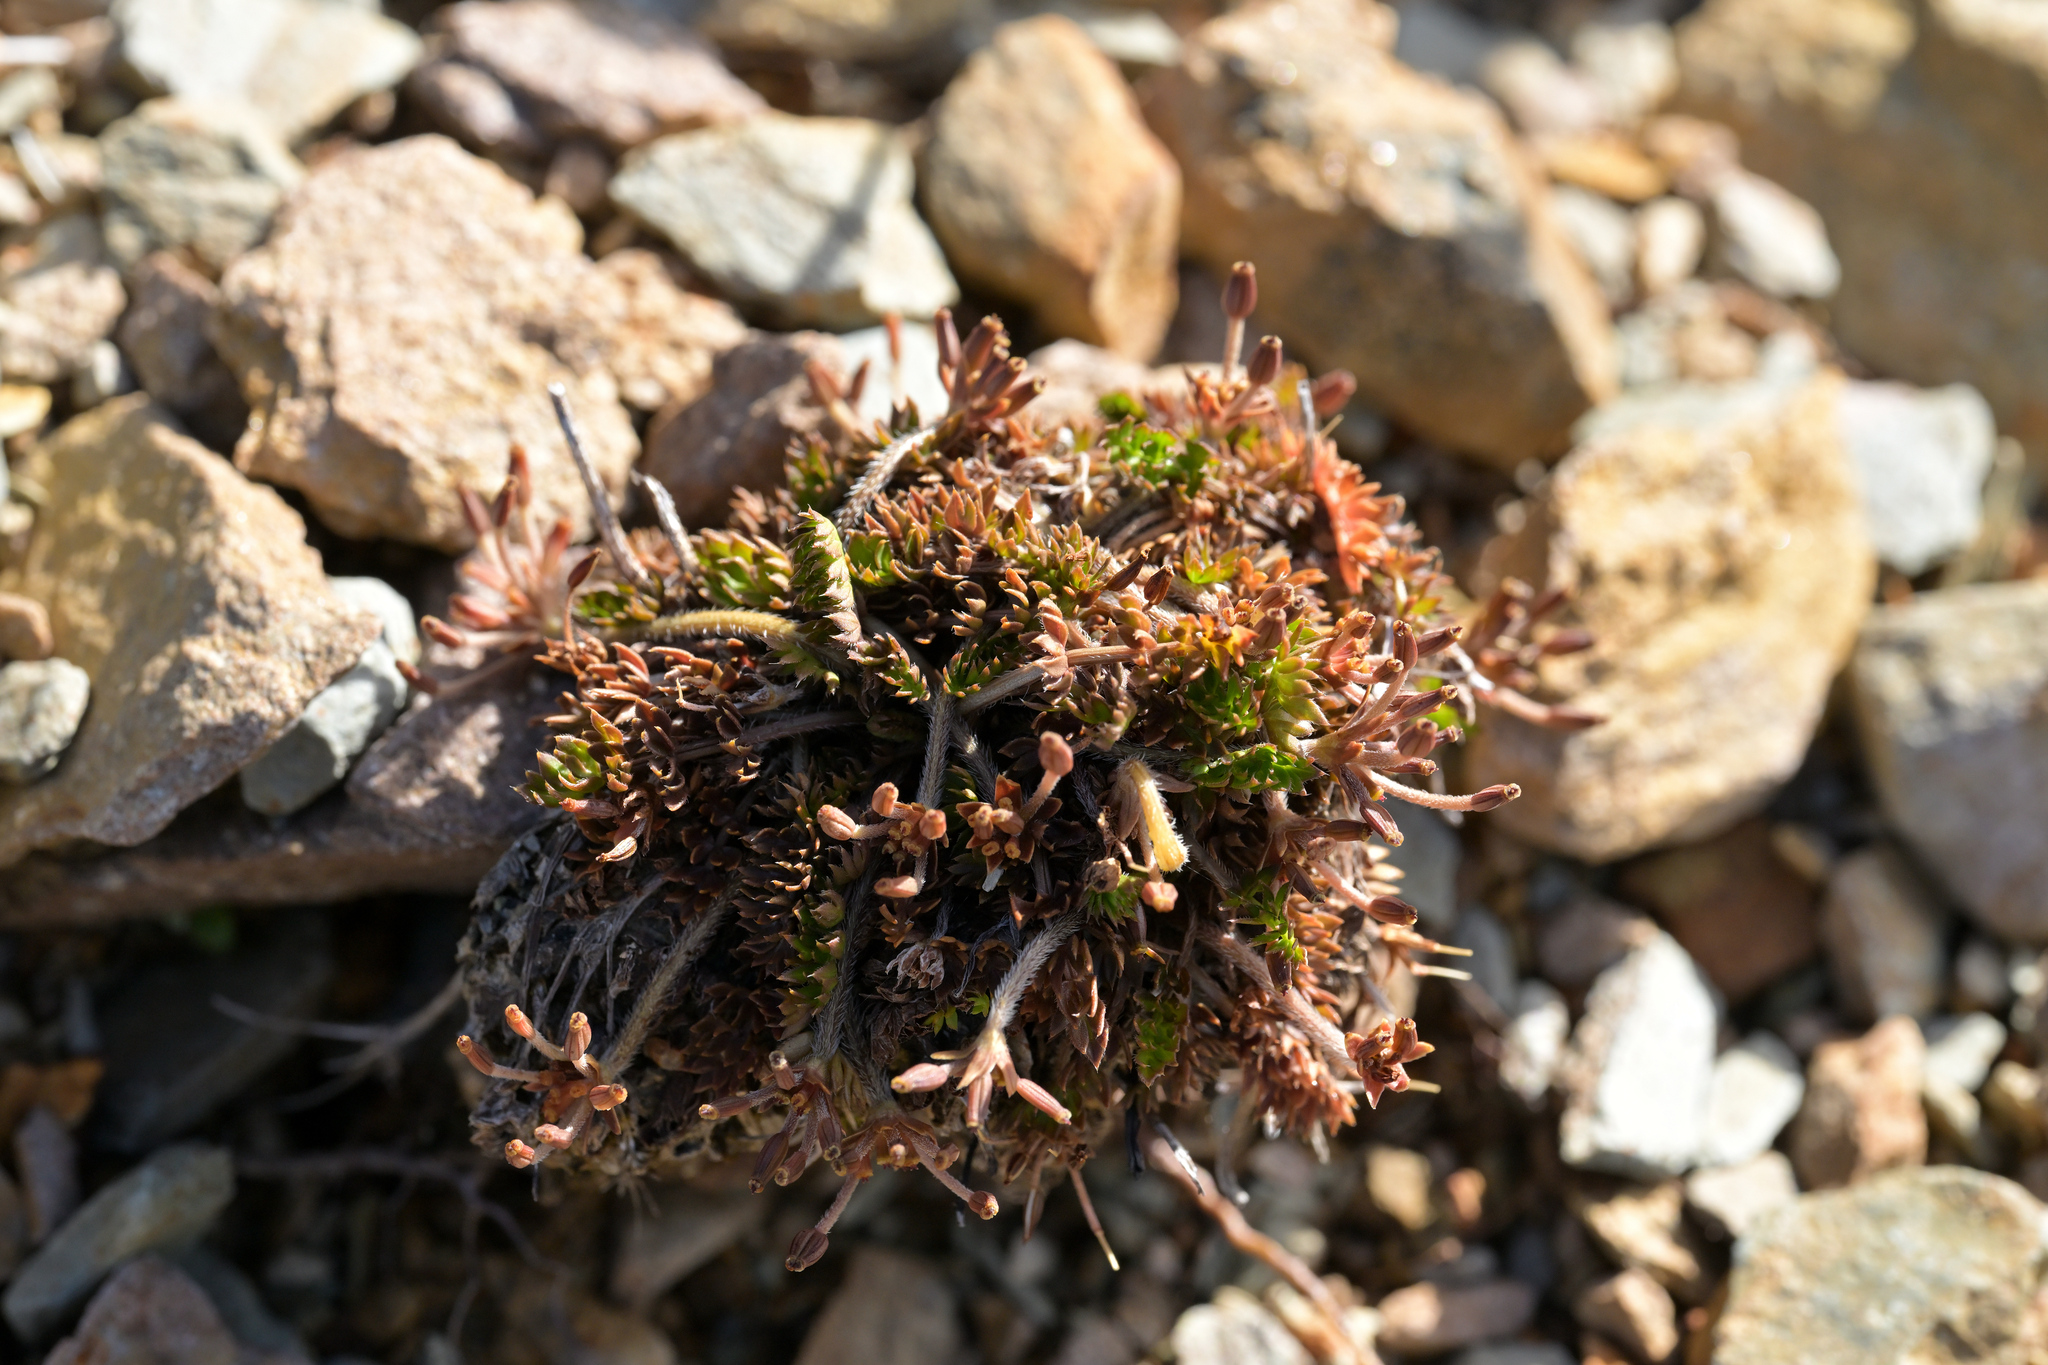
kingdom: Plantae
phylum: Tracheophyta
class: Magnoliopsida
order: Apiales
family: Apiaceae
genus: Chaerophyllum
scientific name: Chaerophyllum colensoi
